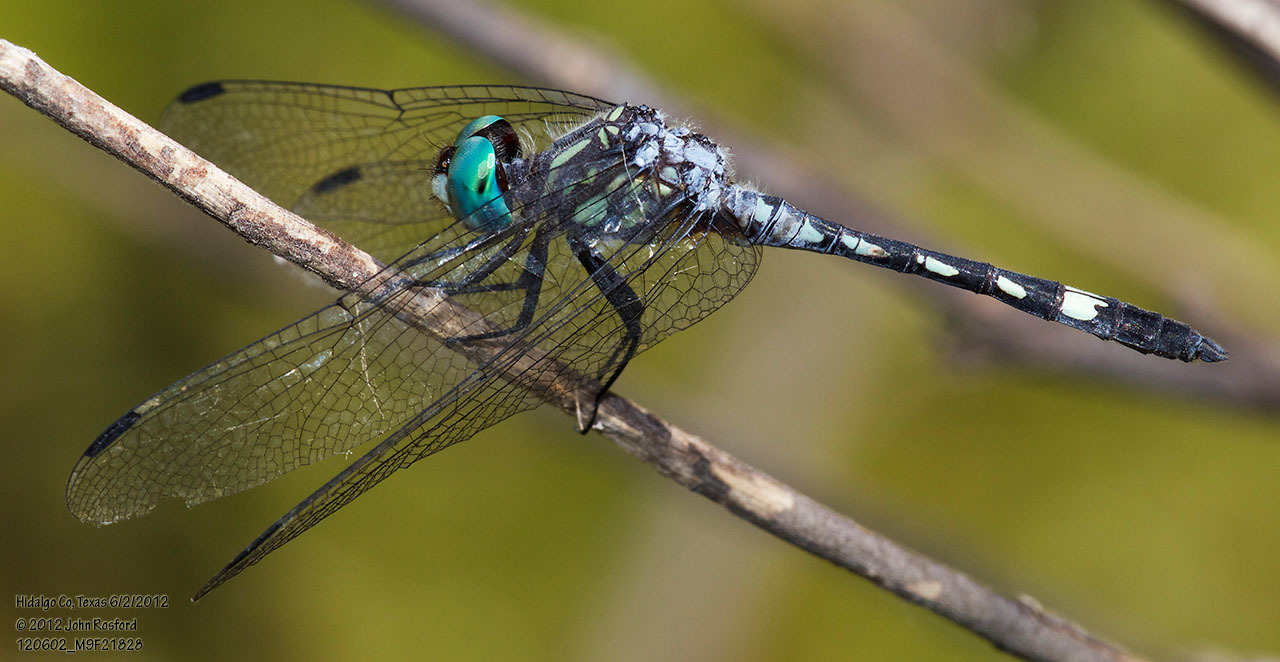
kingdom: Animalia
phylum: Arthropoda
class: Insecta
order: Odonata
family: Libellulidae
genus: Micrathyria
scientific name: Micrathyria hagenii
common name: Thornbush dasher
